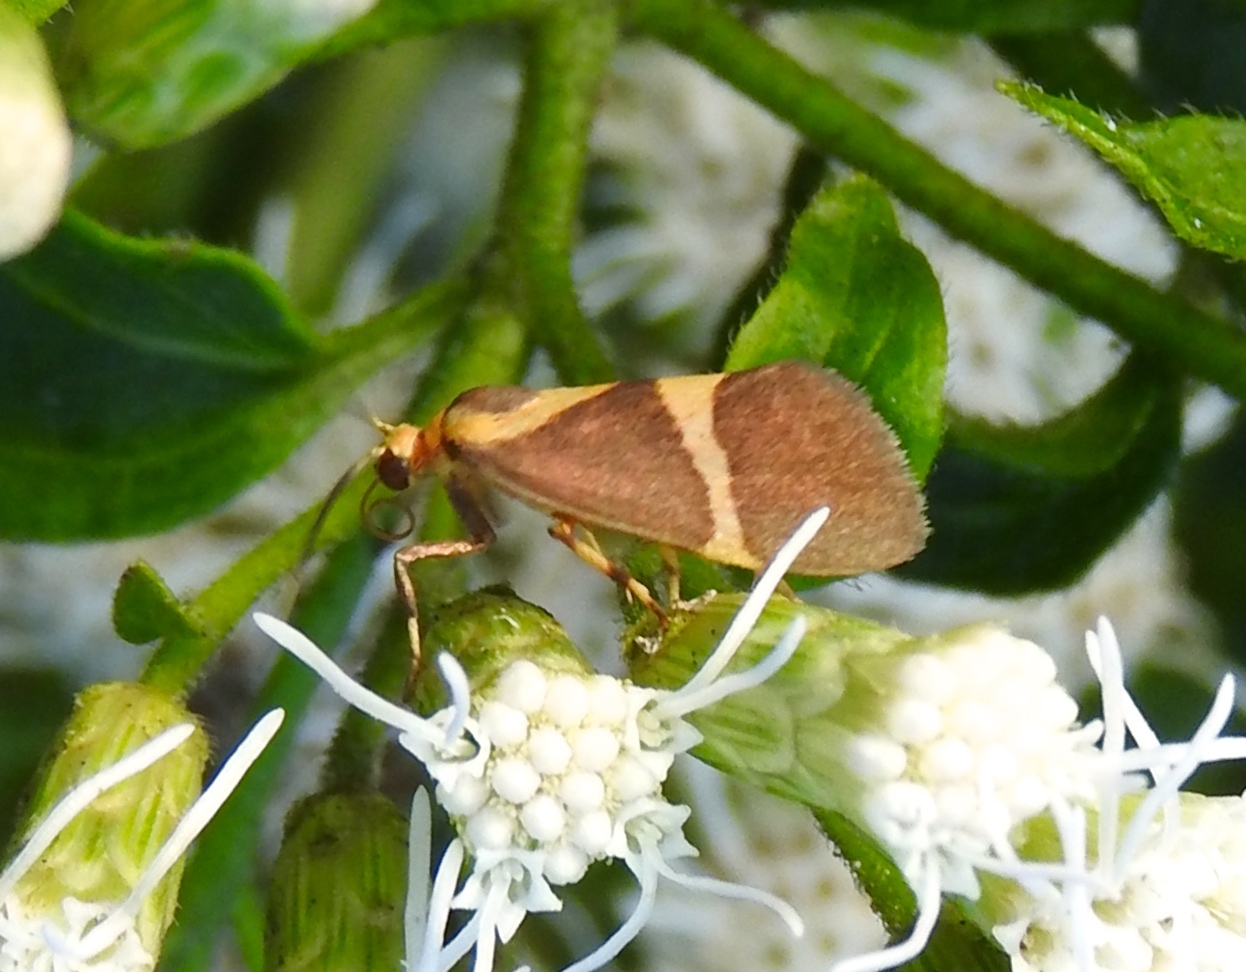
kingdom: Animalia
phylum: Arthropoda
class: Insecta
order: Lepidoptera
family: Erebidae
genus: Cisthene
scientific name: Cisthene
